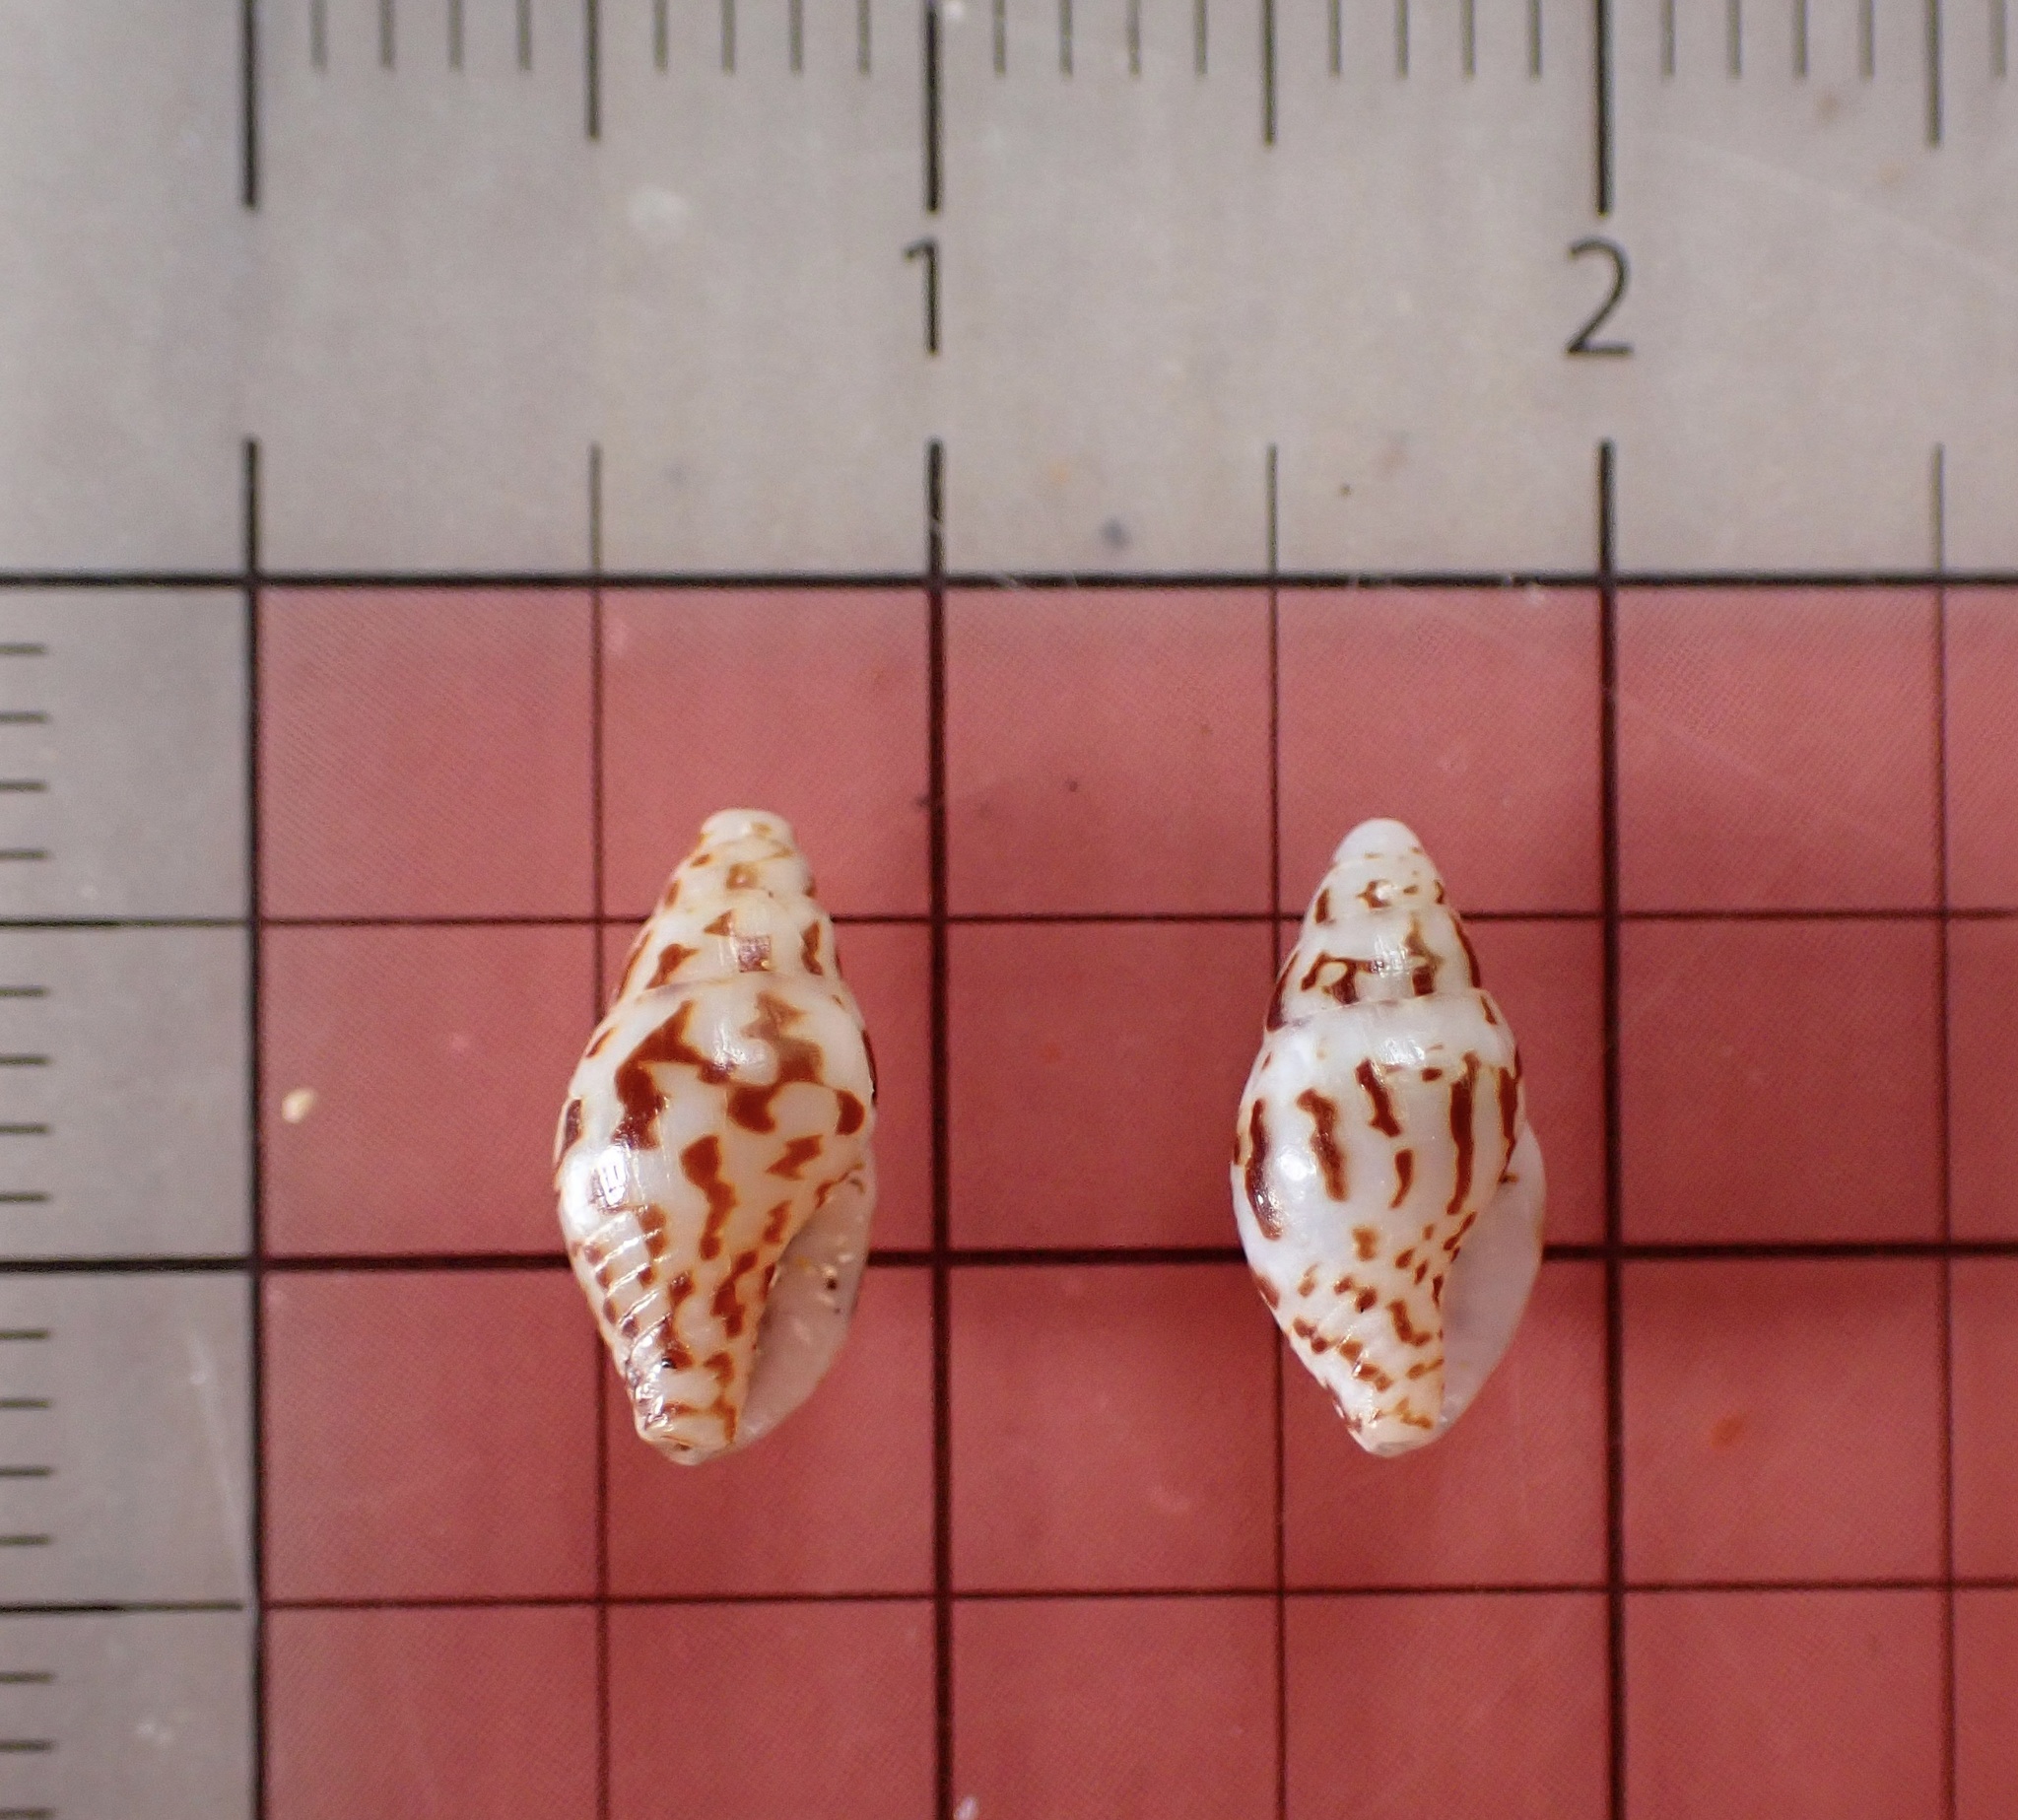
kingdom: Animalia
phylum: Mollusca
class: Gastropoda
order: Neogastropoda
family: Columbellidae
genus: Anachis
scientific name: Anachis miser
